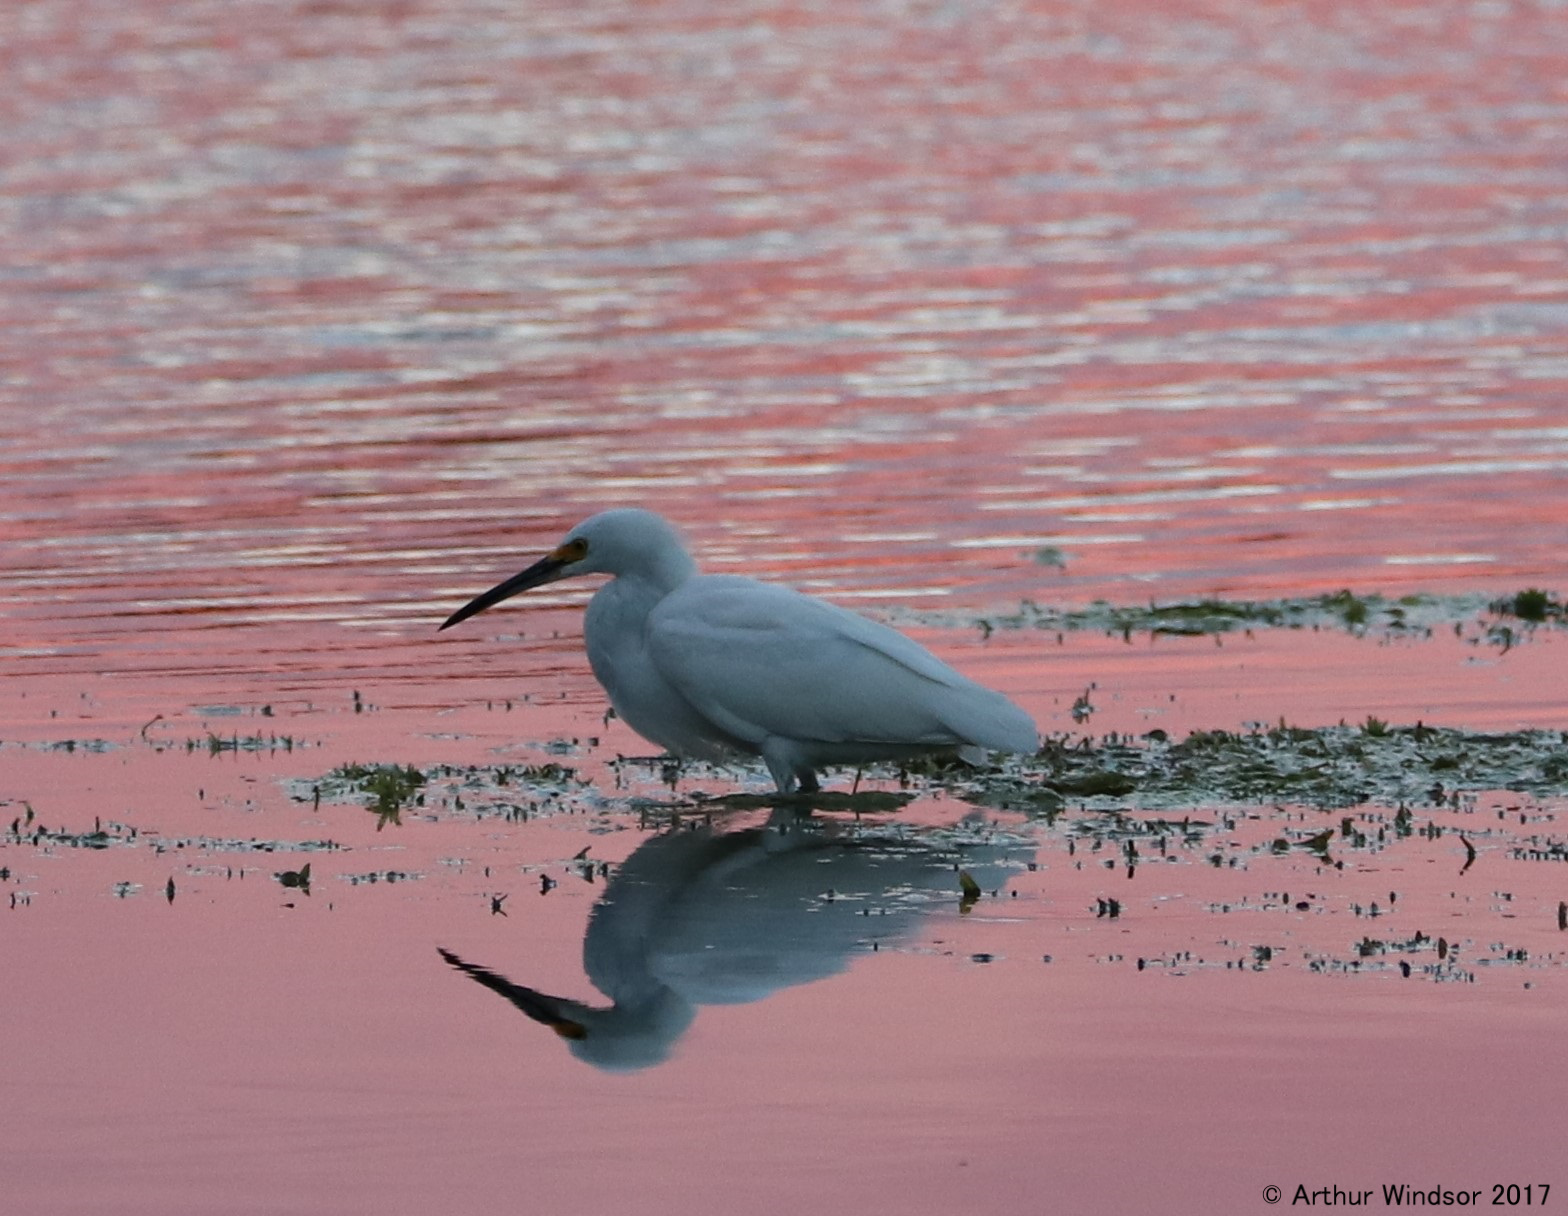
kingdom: Animalia
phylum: Chordata
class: Aves
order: Pelecaniformes
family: Ardeidae
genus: Egretta
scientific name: Egretta thula
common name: Snowy egret
